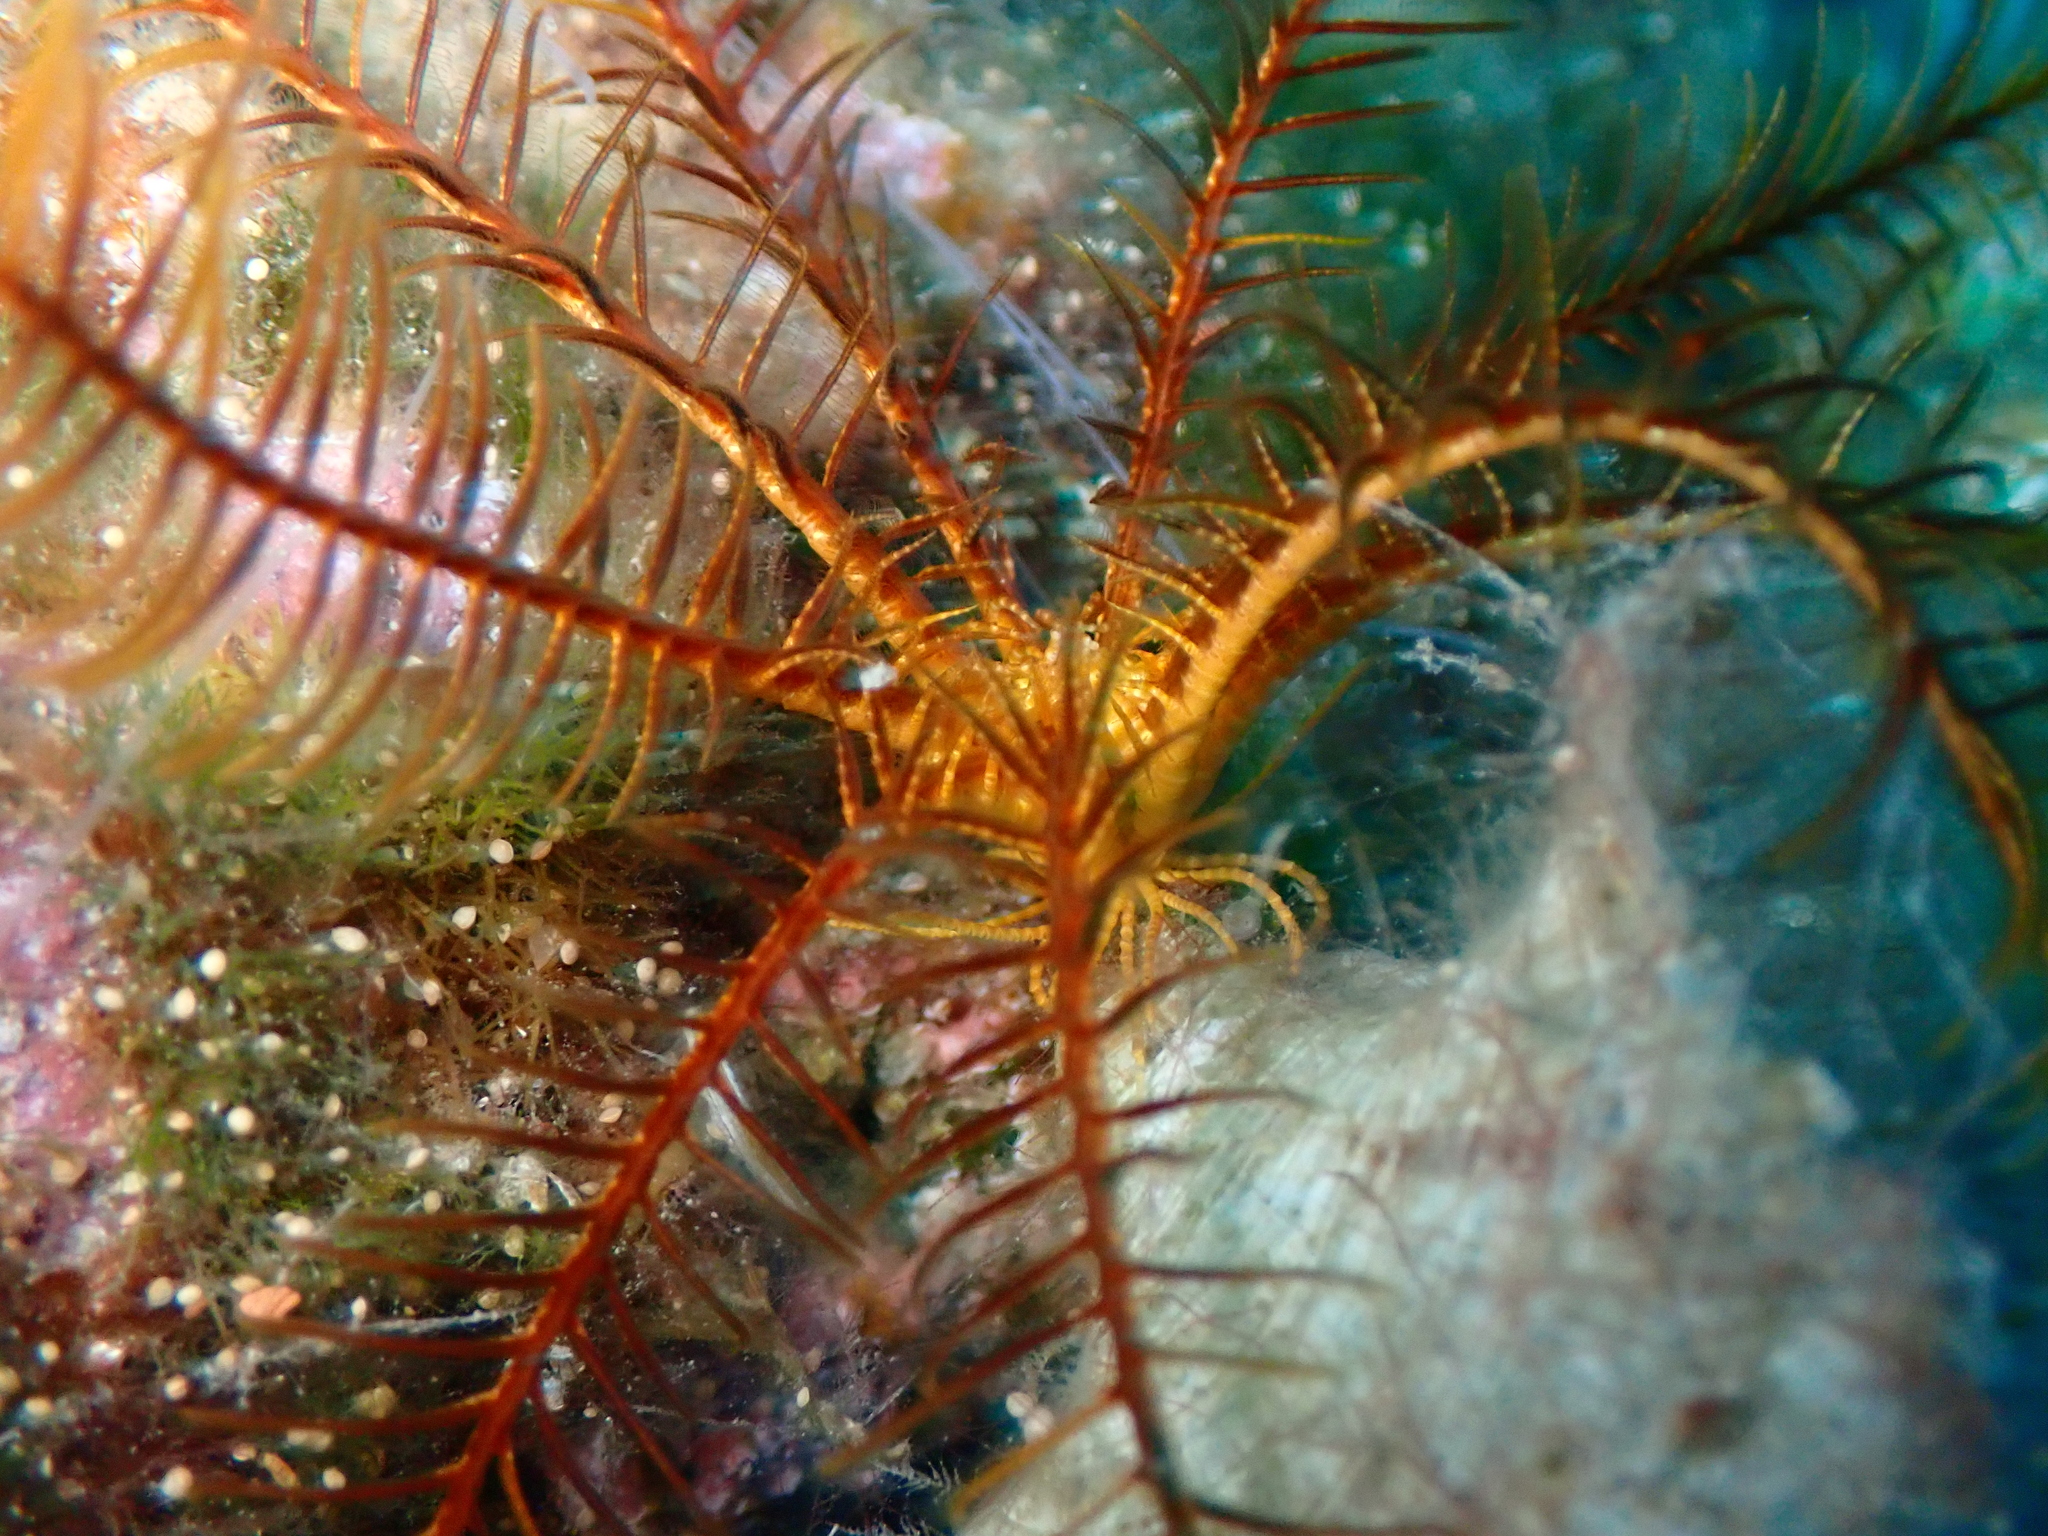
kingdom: Animalia
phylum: Echinodermata
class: Crinoidea
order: Comatulida
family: Antedonidae
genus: Antedon
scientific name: Antedon mediterranea
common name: Feather star
